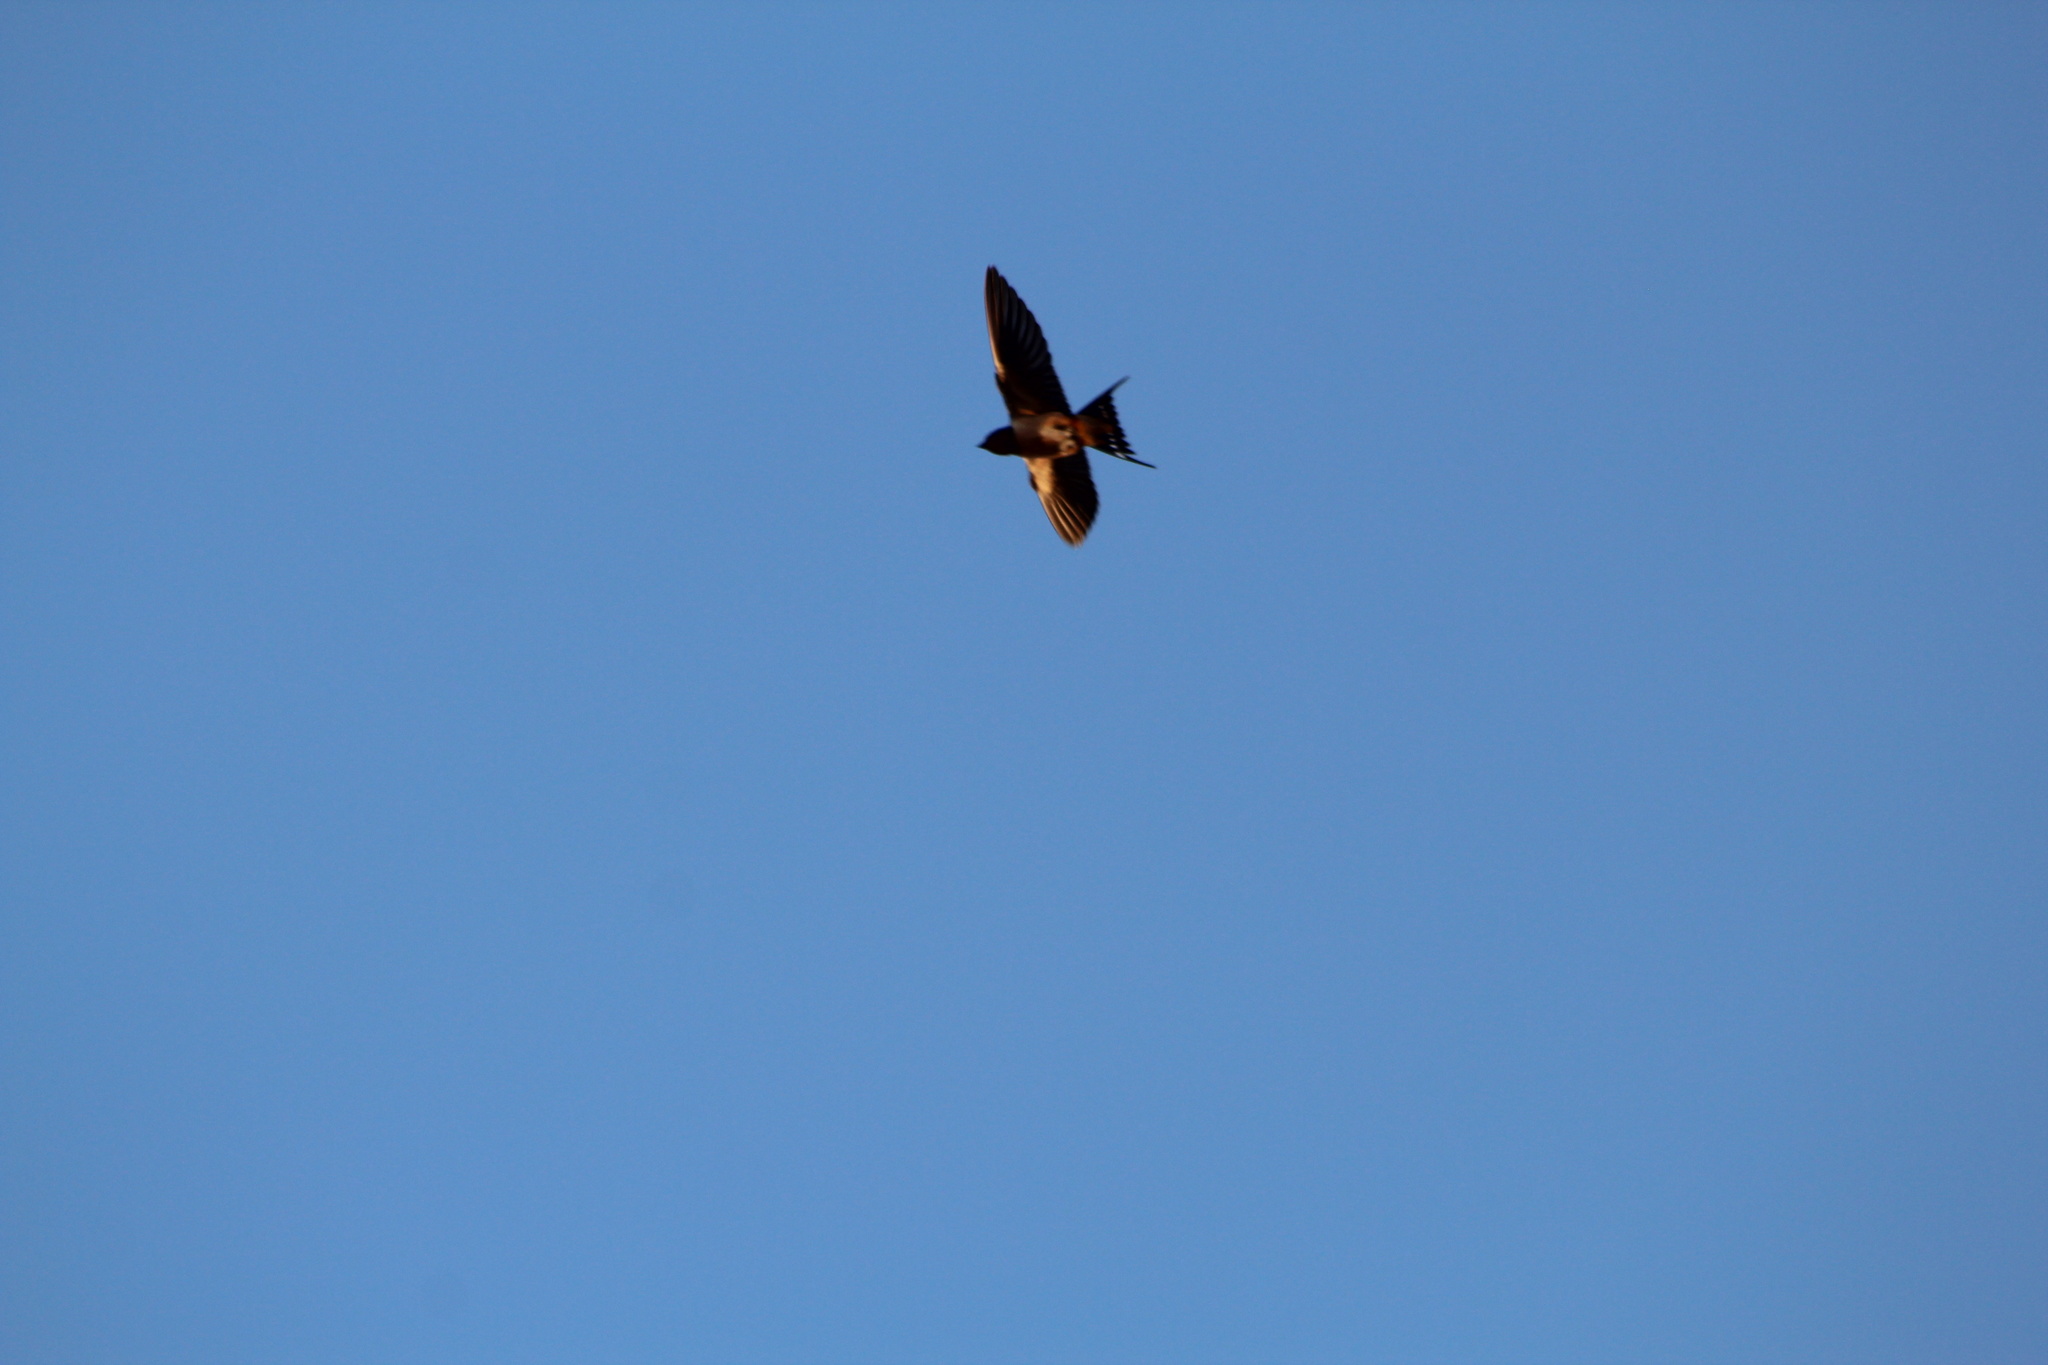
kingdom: Animalia
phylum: Chordata
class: Aves
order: Passeriformes
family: Hirundinidae
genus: Hirundo
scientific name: Hirundo rustica
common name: Barn swallow
